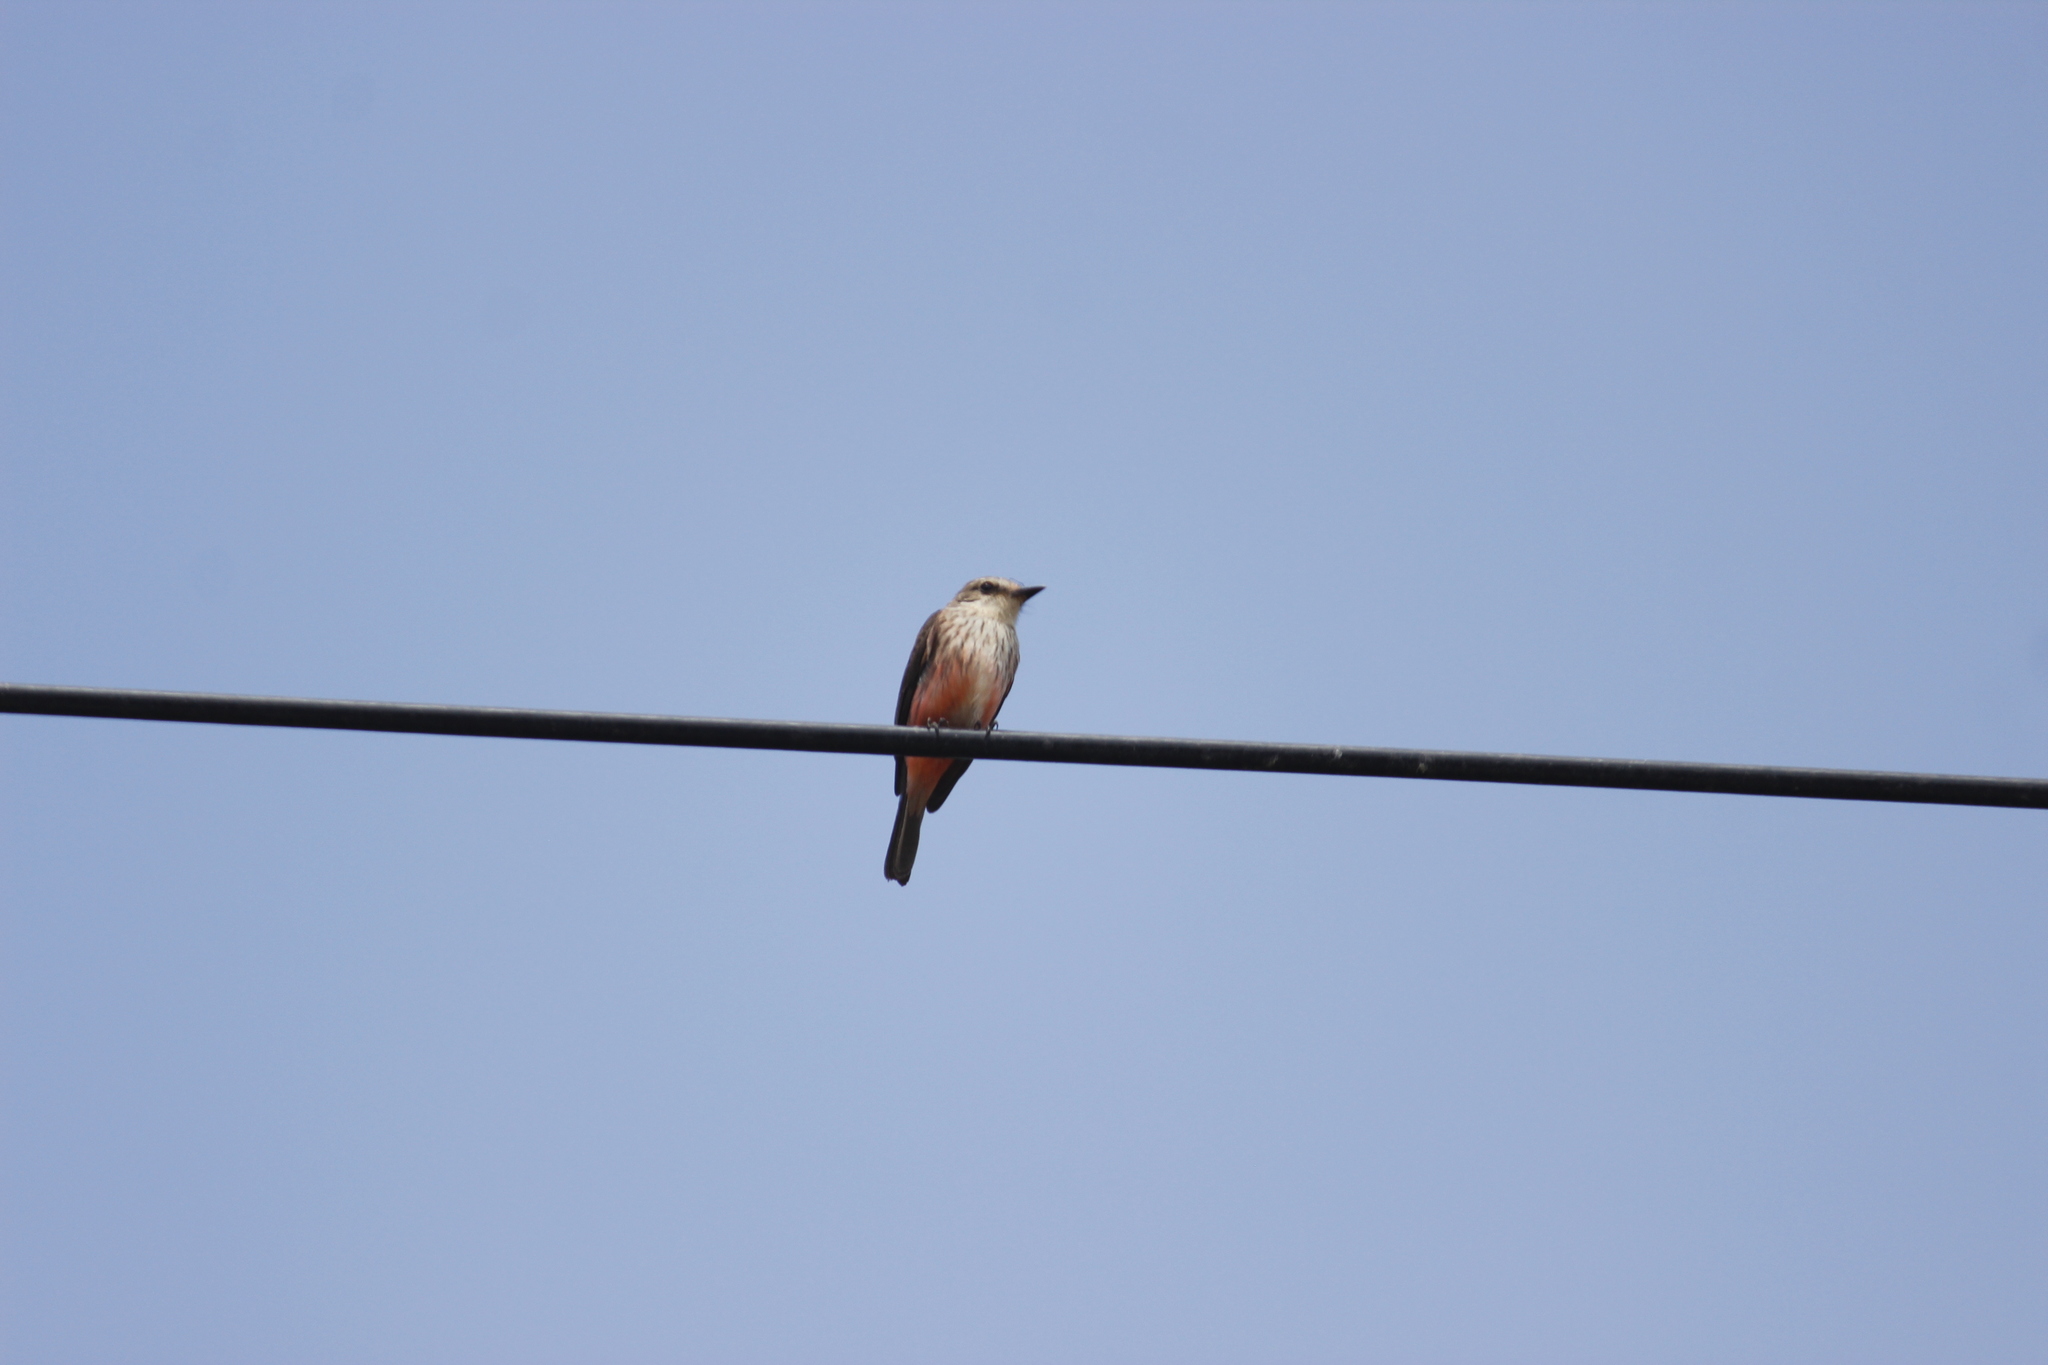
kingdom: Animalia
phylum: Chordata
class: Aves
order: Passeriformes
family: Tyrannidae
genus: Pyrocephalus
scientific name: Pyrocephalus rubinus
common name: Vermilion flycatcher
